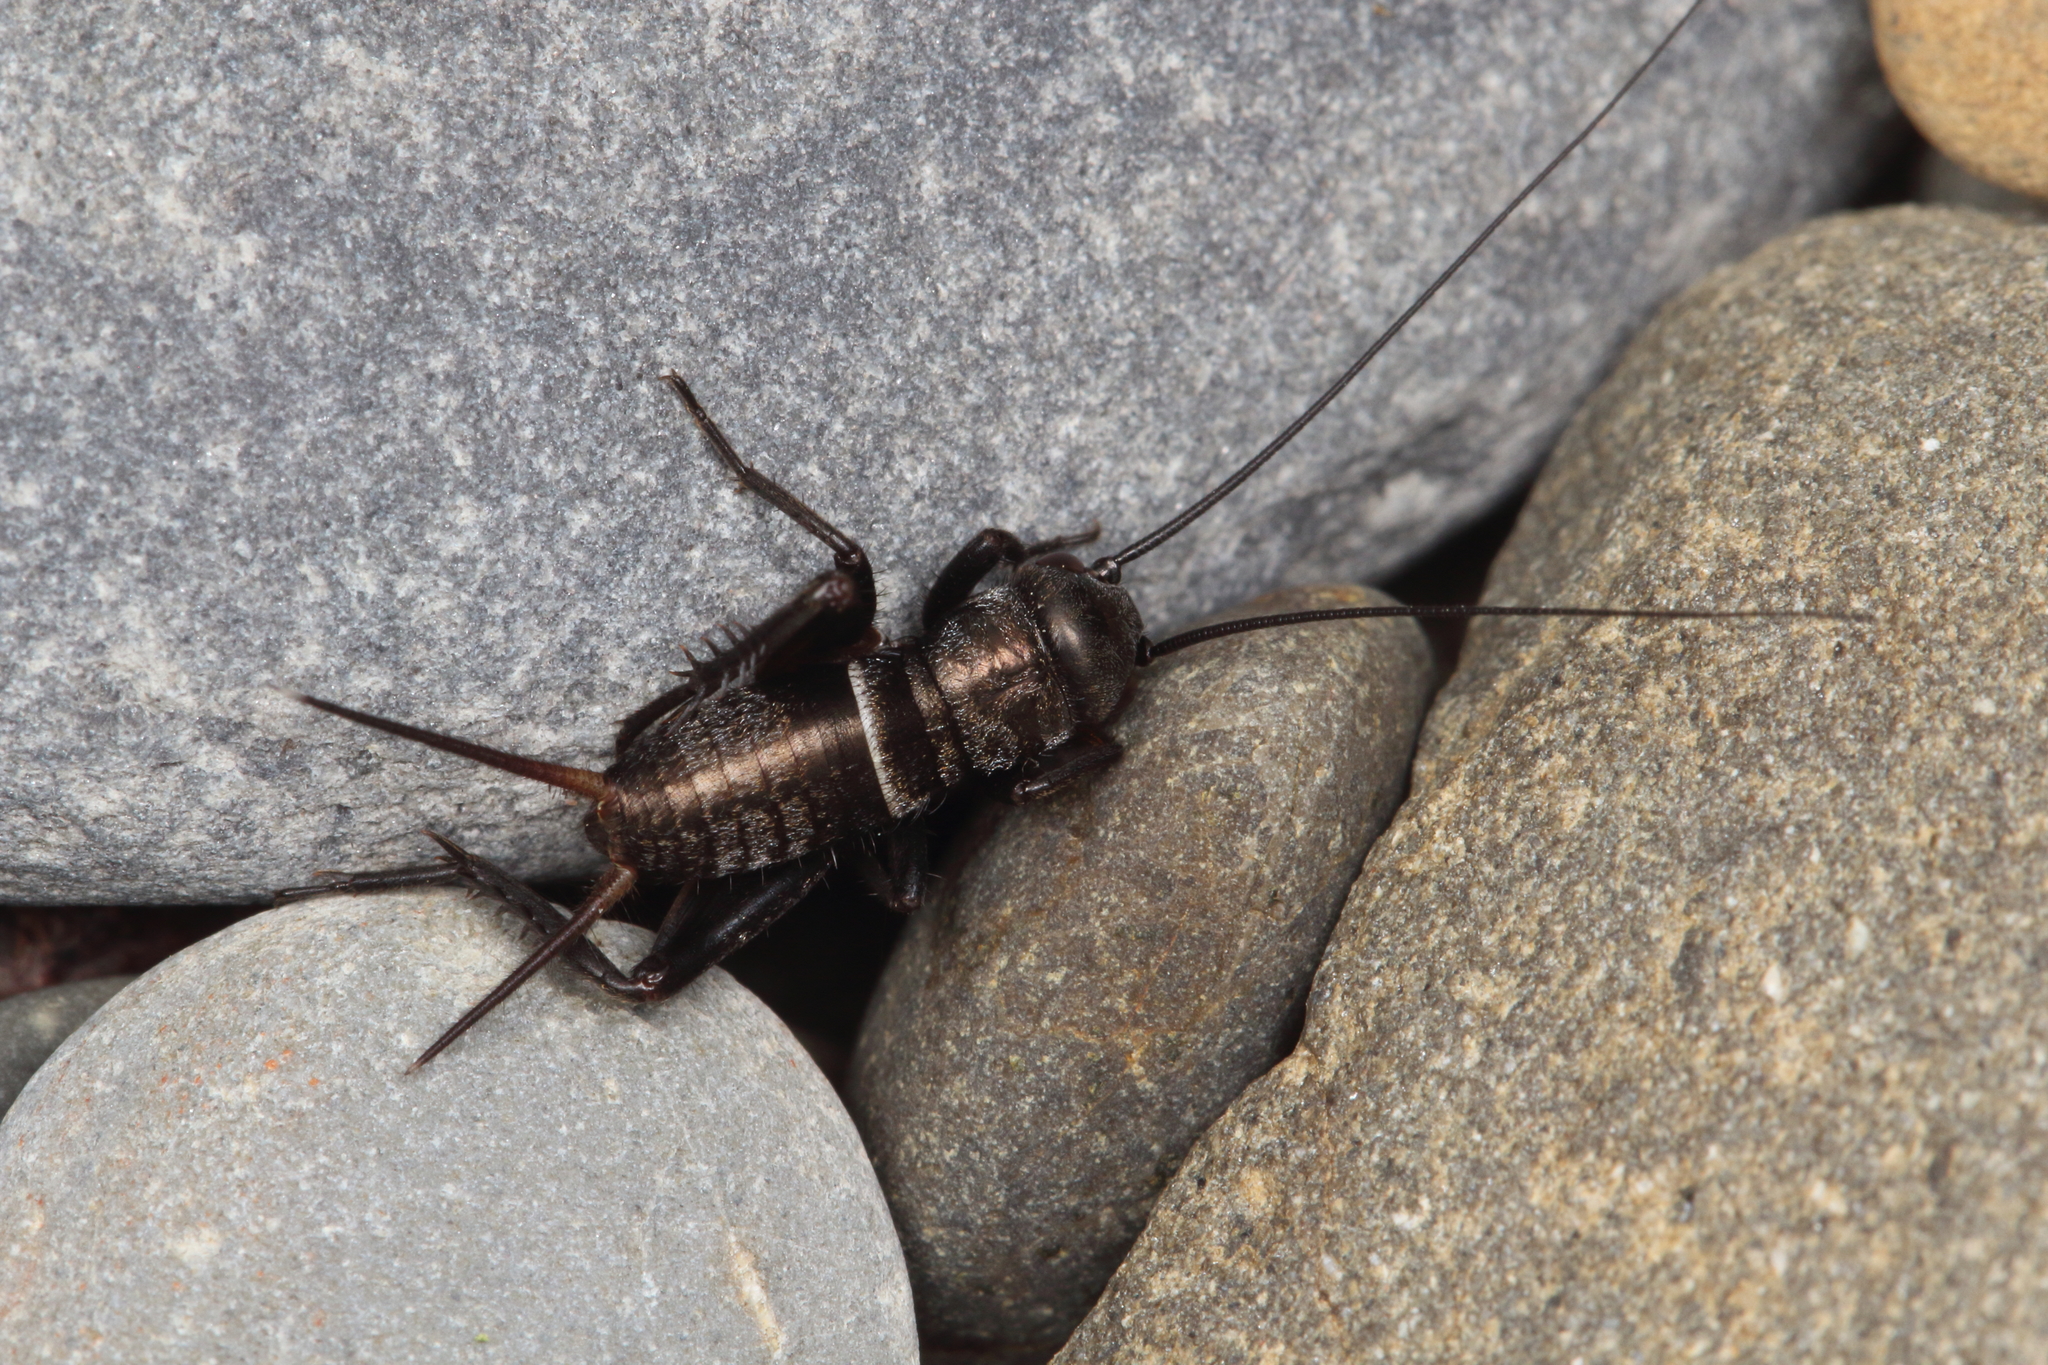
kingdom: Animalia
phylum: Arthropoda
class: Insecta
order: Orthoptera
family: Gryllidae
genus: Teleogryllus
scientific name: Teleogryllus commodus
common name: Black field cricket
